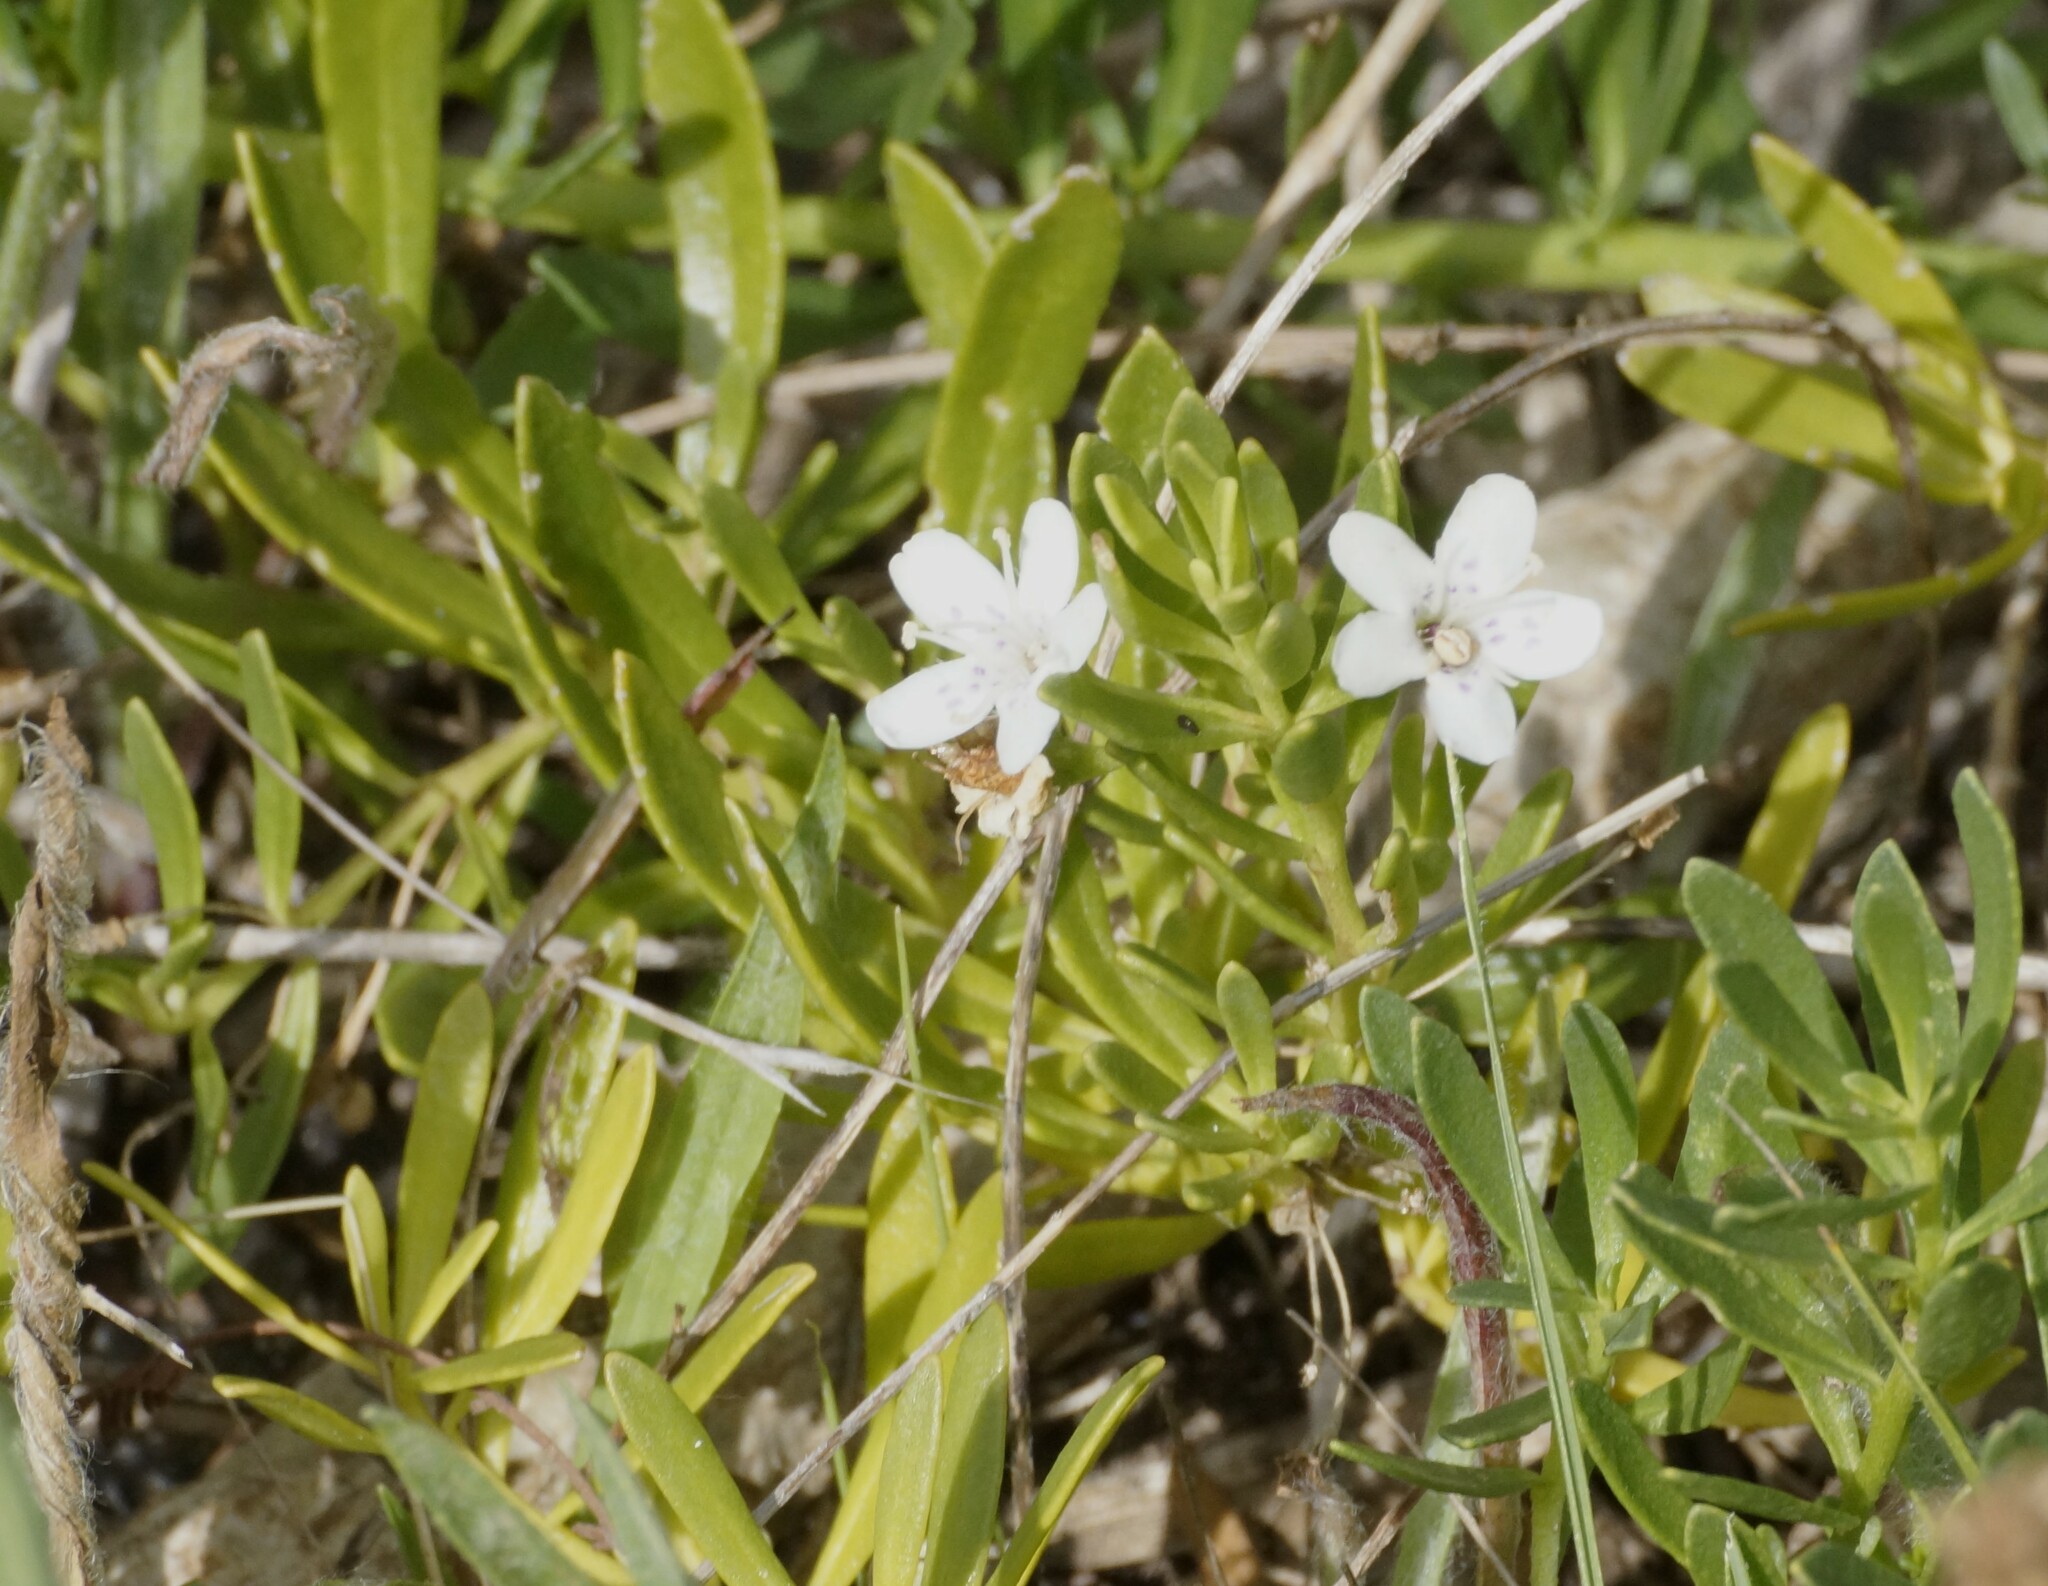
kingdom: Plantae
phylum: Tracheophyta
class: Magnoliopsida
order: Lamiales
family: Scrophulariaceae
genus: Myoporum
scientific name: Myoporum parvifolium
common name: Dwarf native-myrtle
